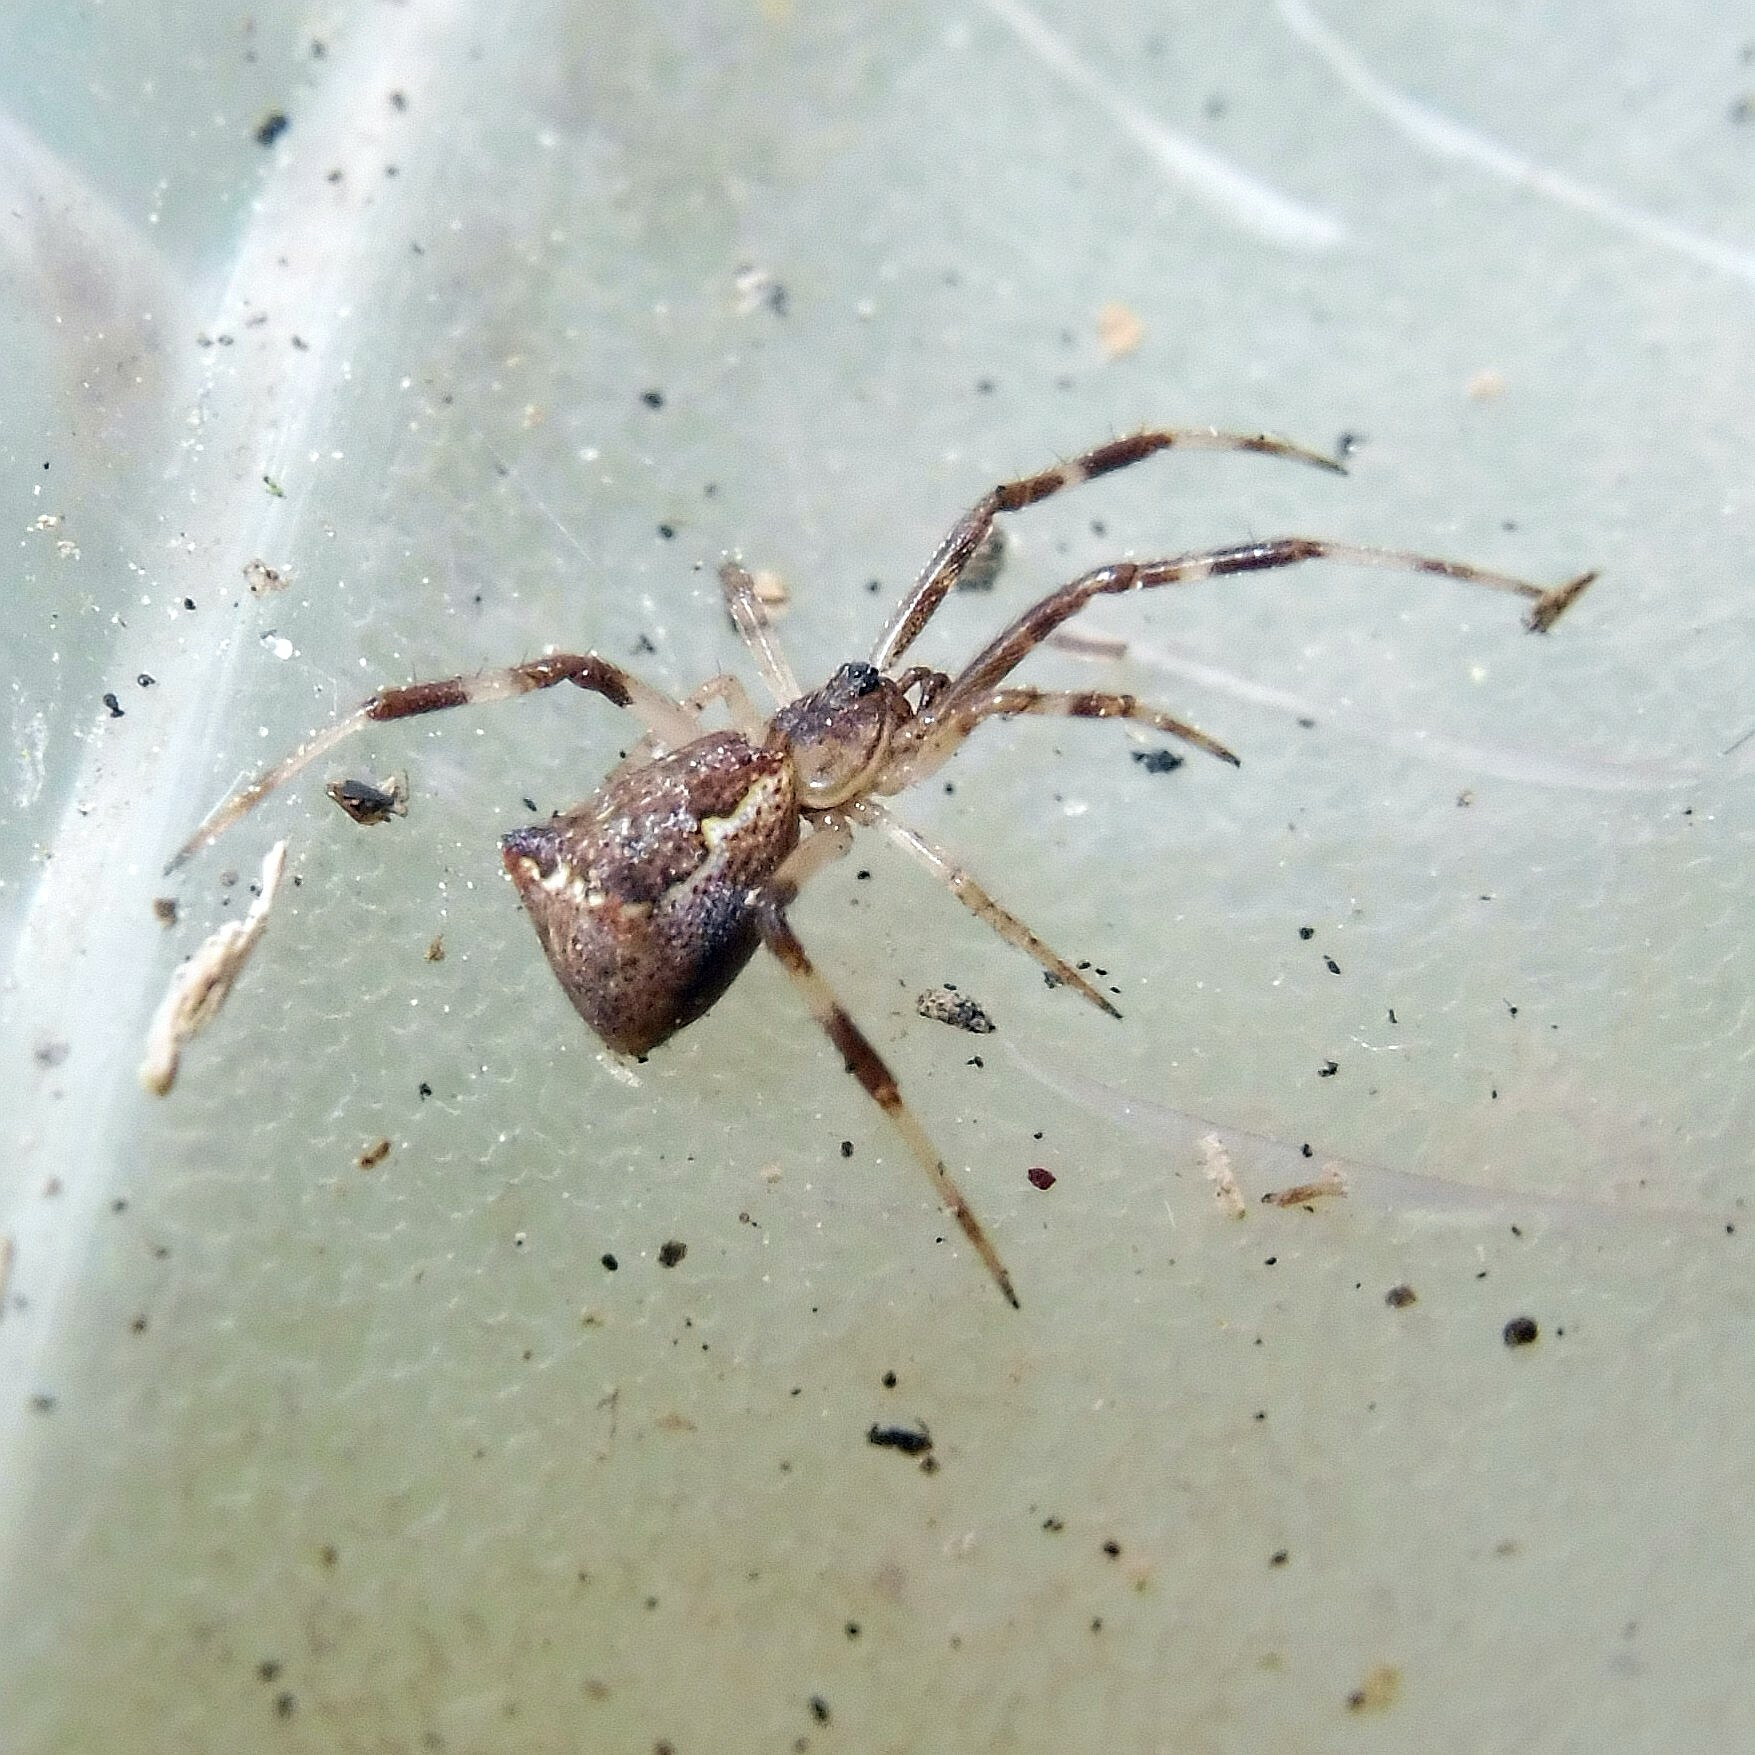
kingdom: Animalia
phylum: Arthropoda
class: Arachnida
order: Araneae
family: Theridiidae
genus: Episinus
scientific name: Episinus angulatus
